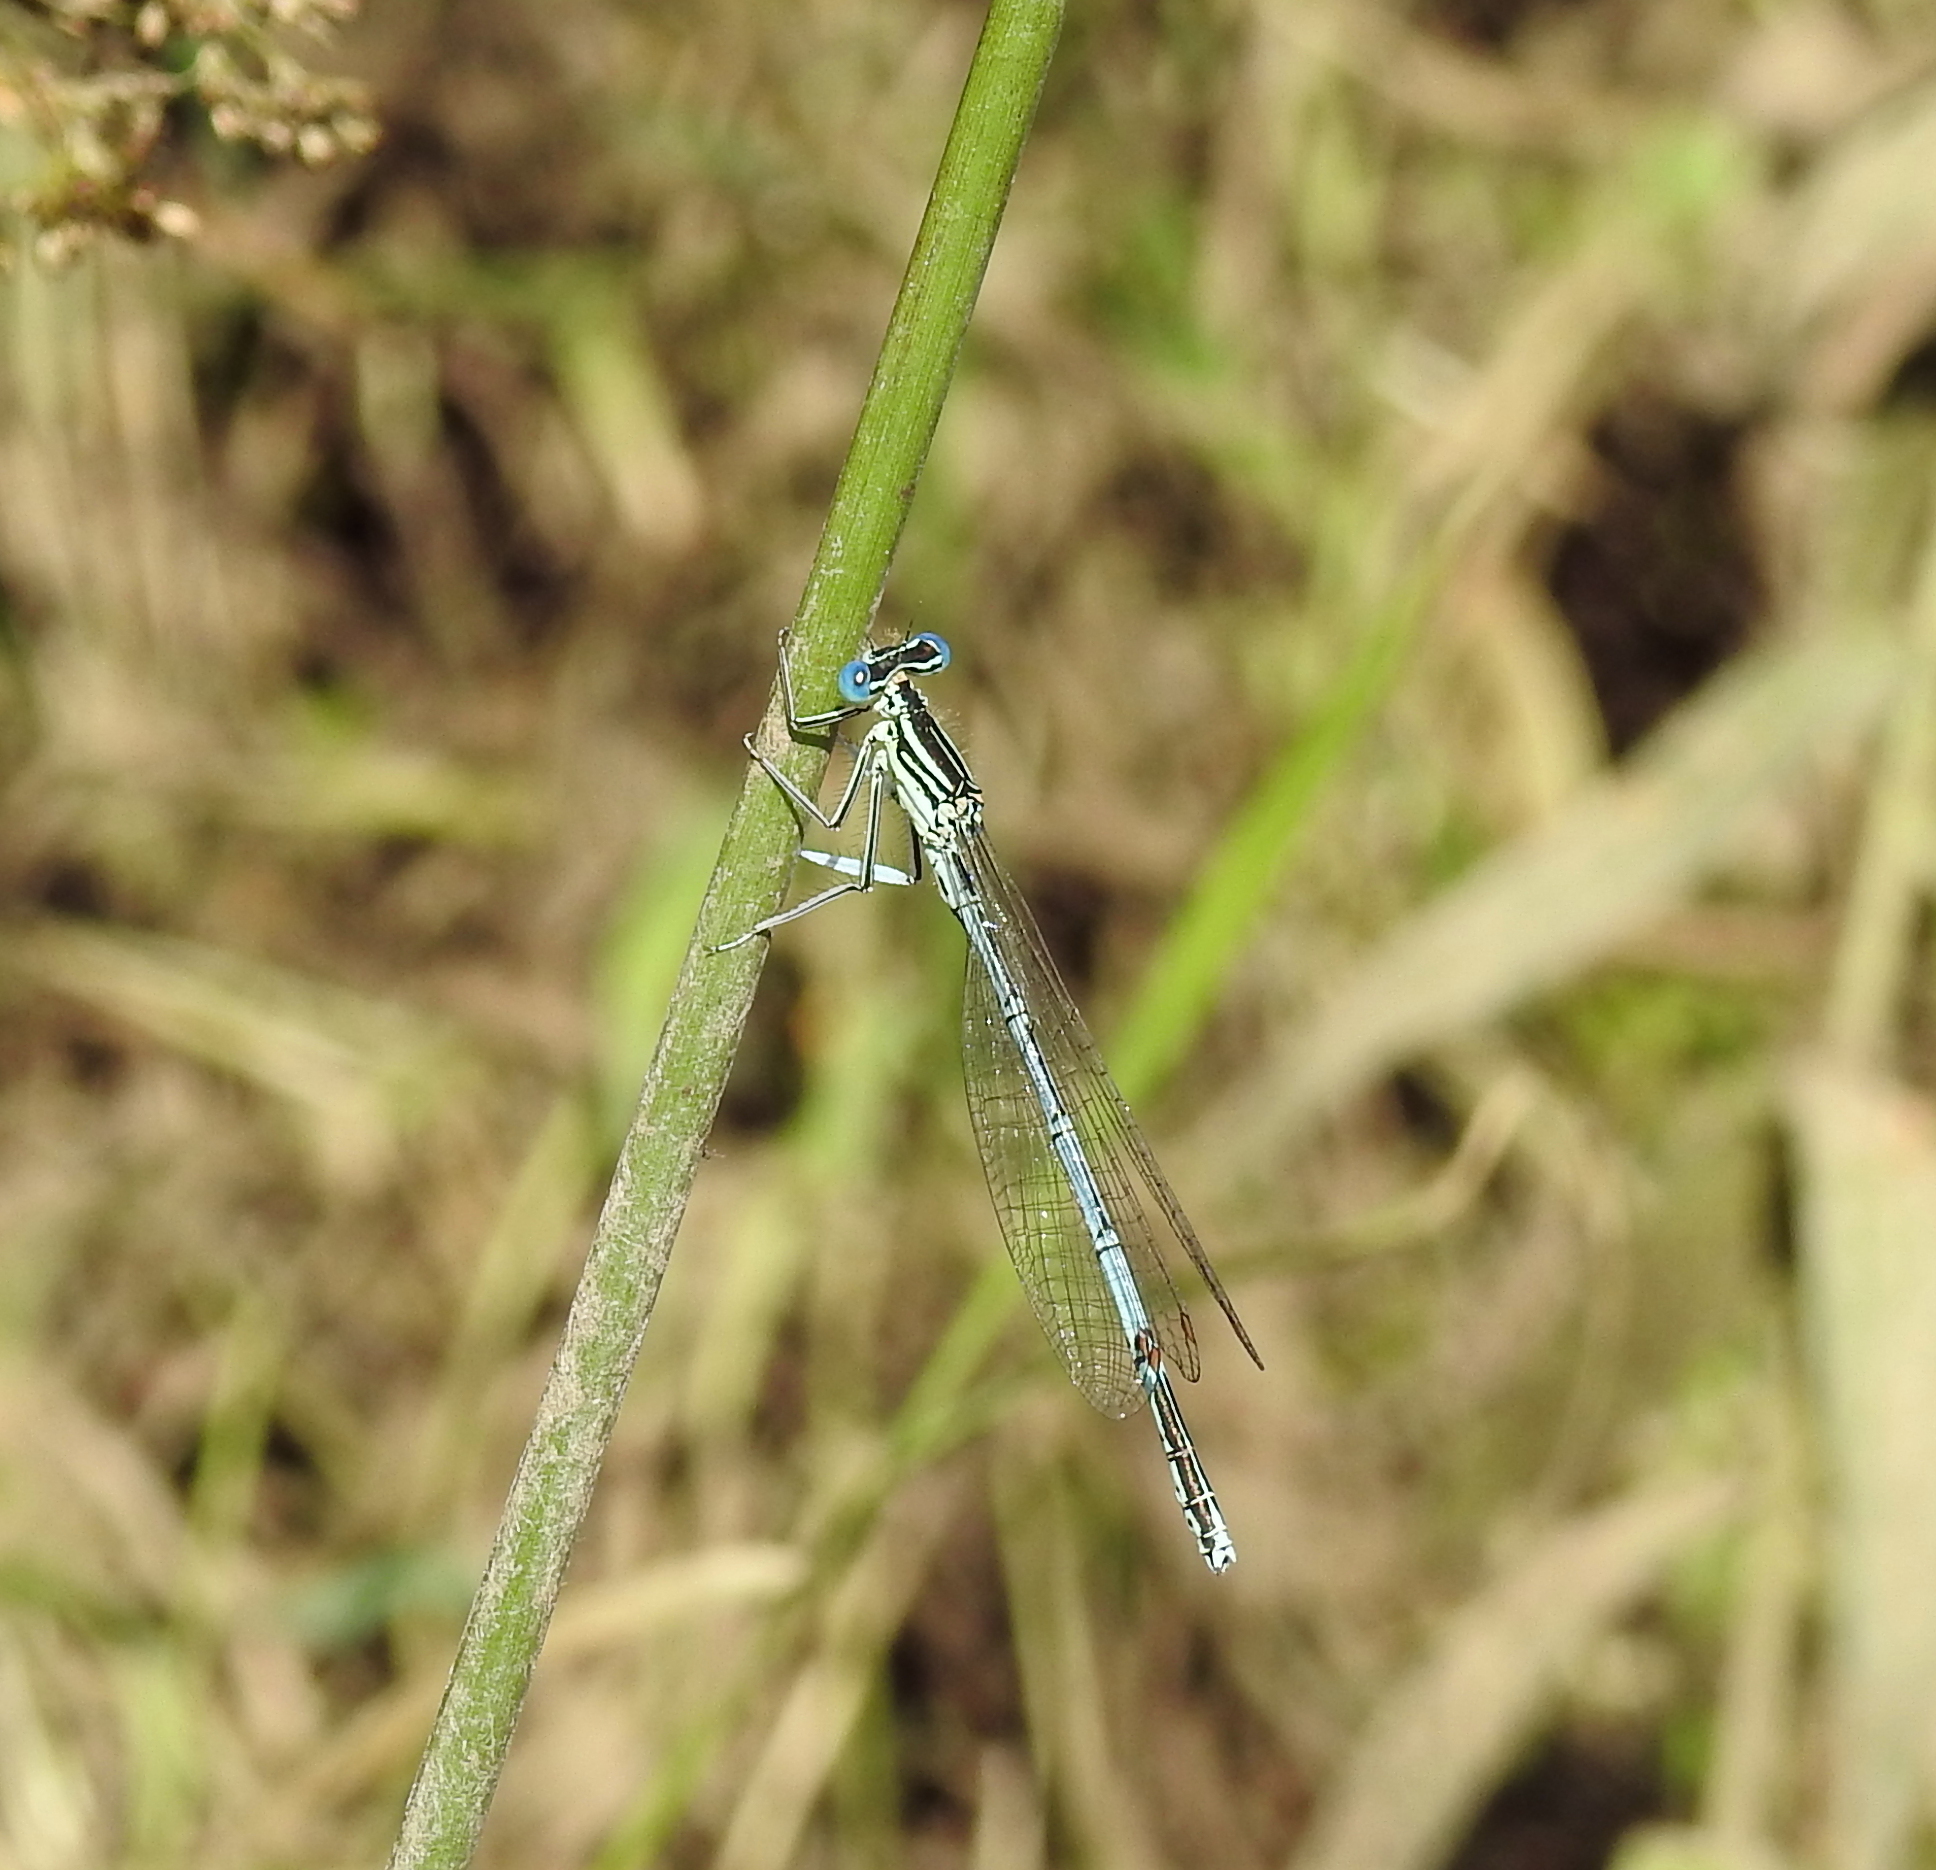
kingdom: Animalia
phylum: Arthropoda
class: Insecta
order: Odonata
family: Platycnemididae
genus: Platycnemis
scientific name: Platycnemis pennipes
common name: White-legged damselfly
